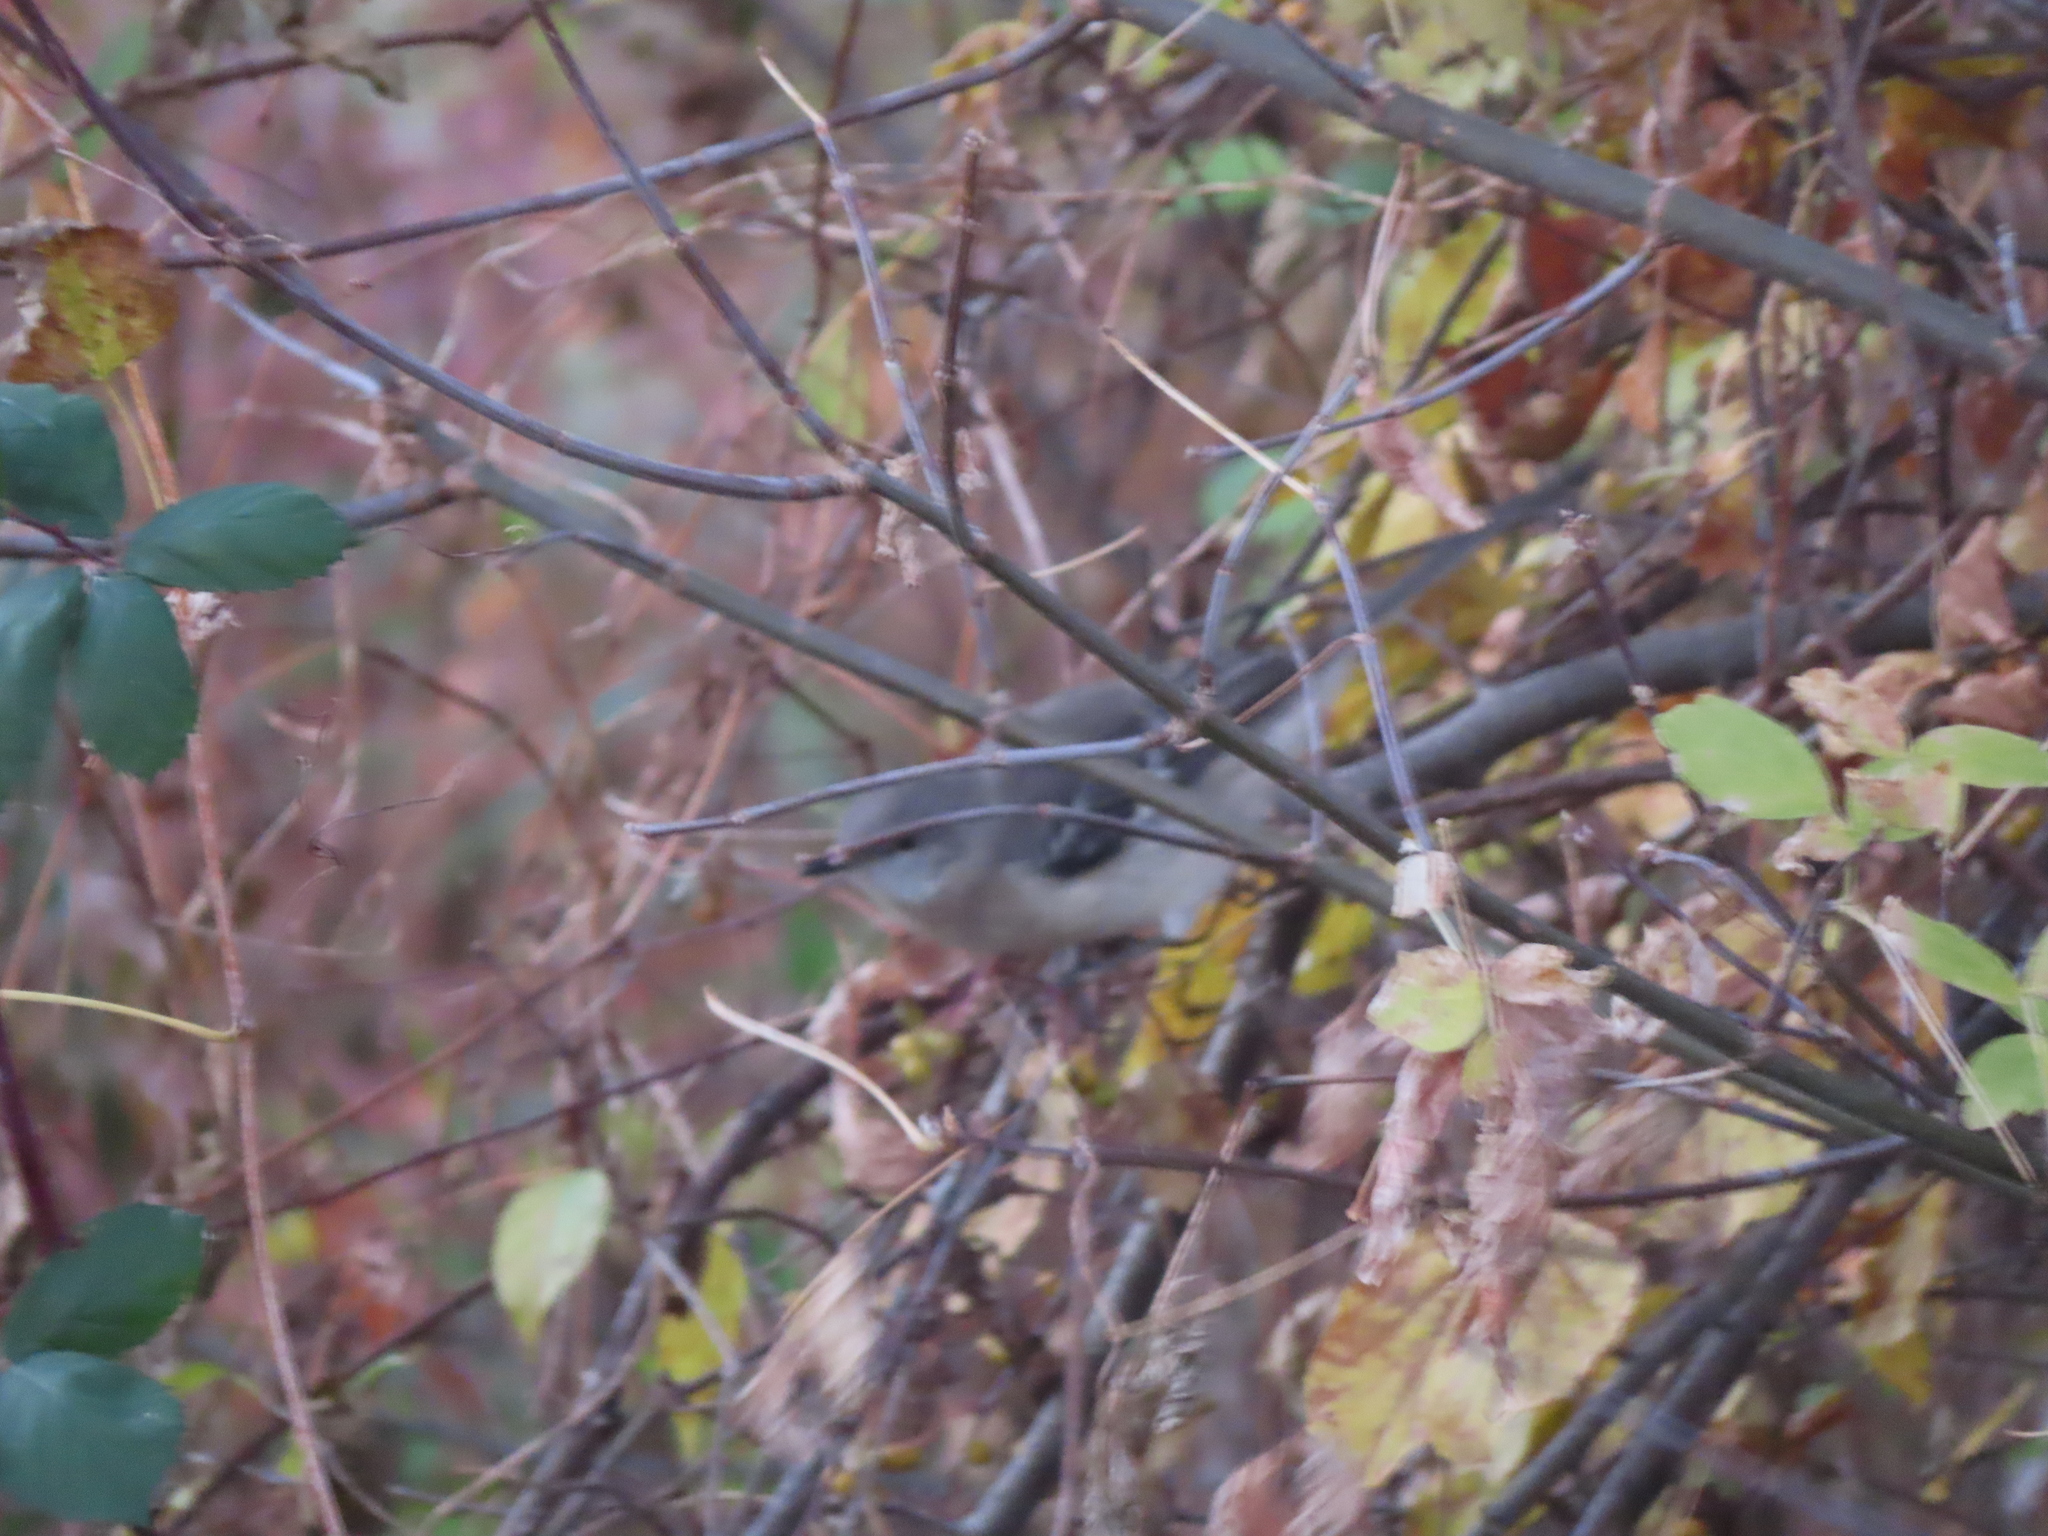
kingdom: Animalia
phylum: Chordata
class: Aves
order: Passeriformes
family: Mimidae
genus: Mimus
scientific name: Mimus polyglottos
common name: Northern mockingbird
